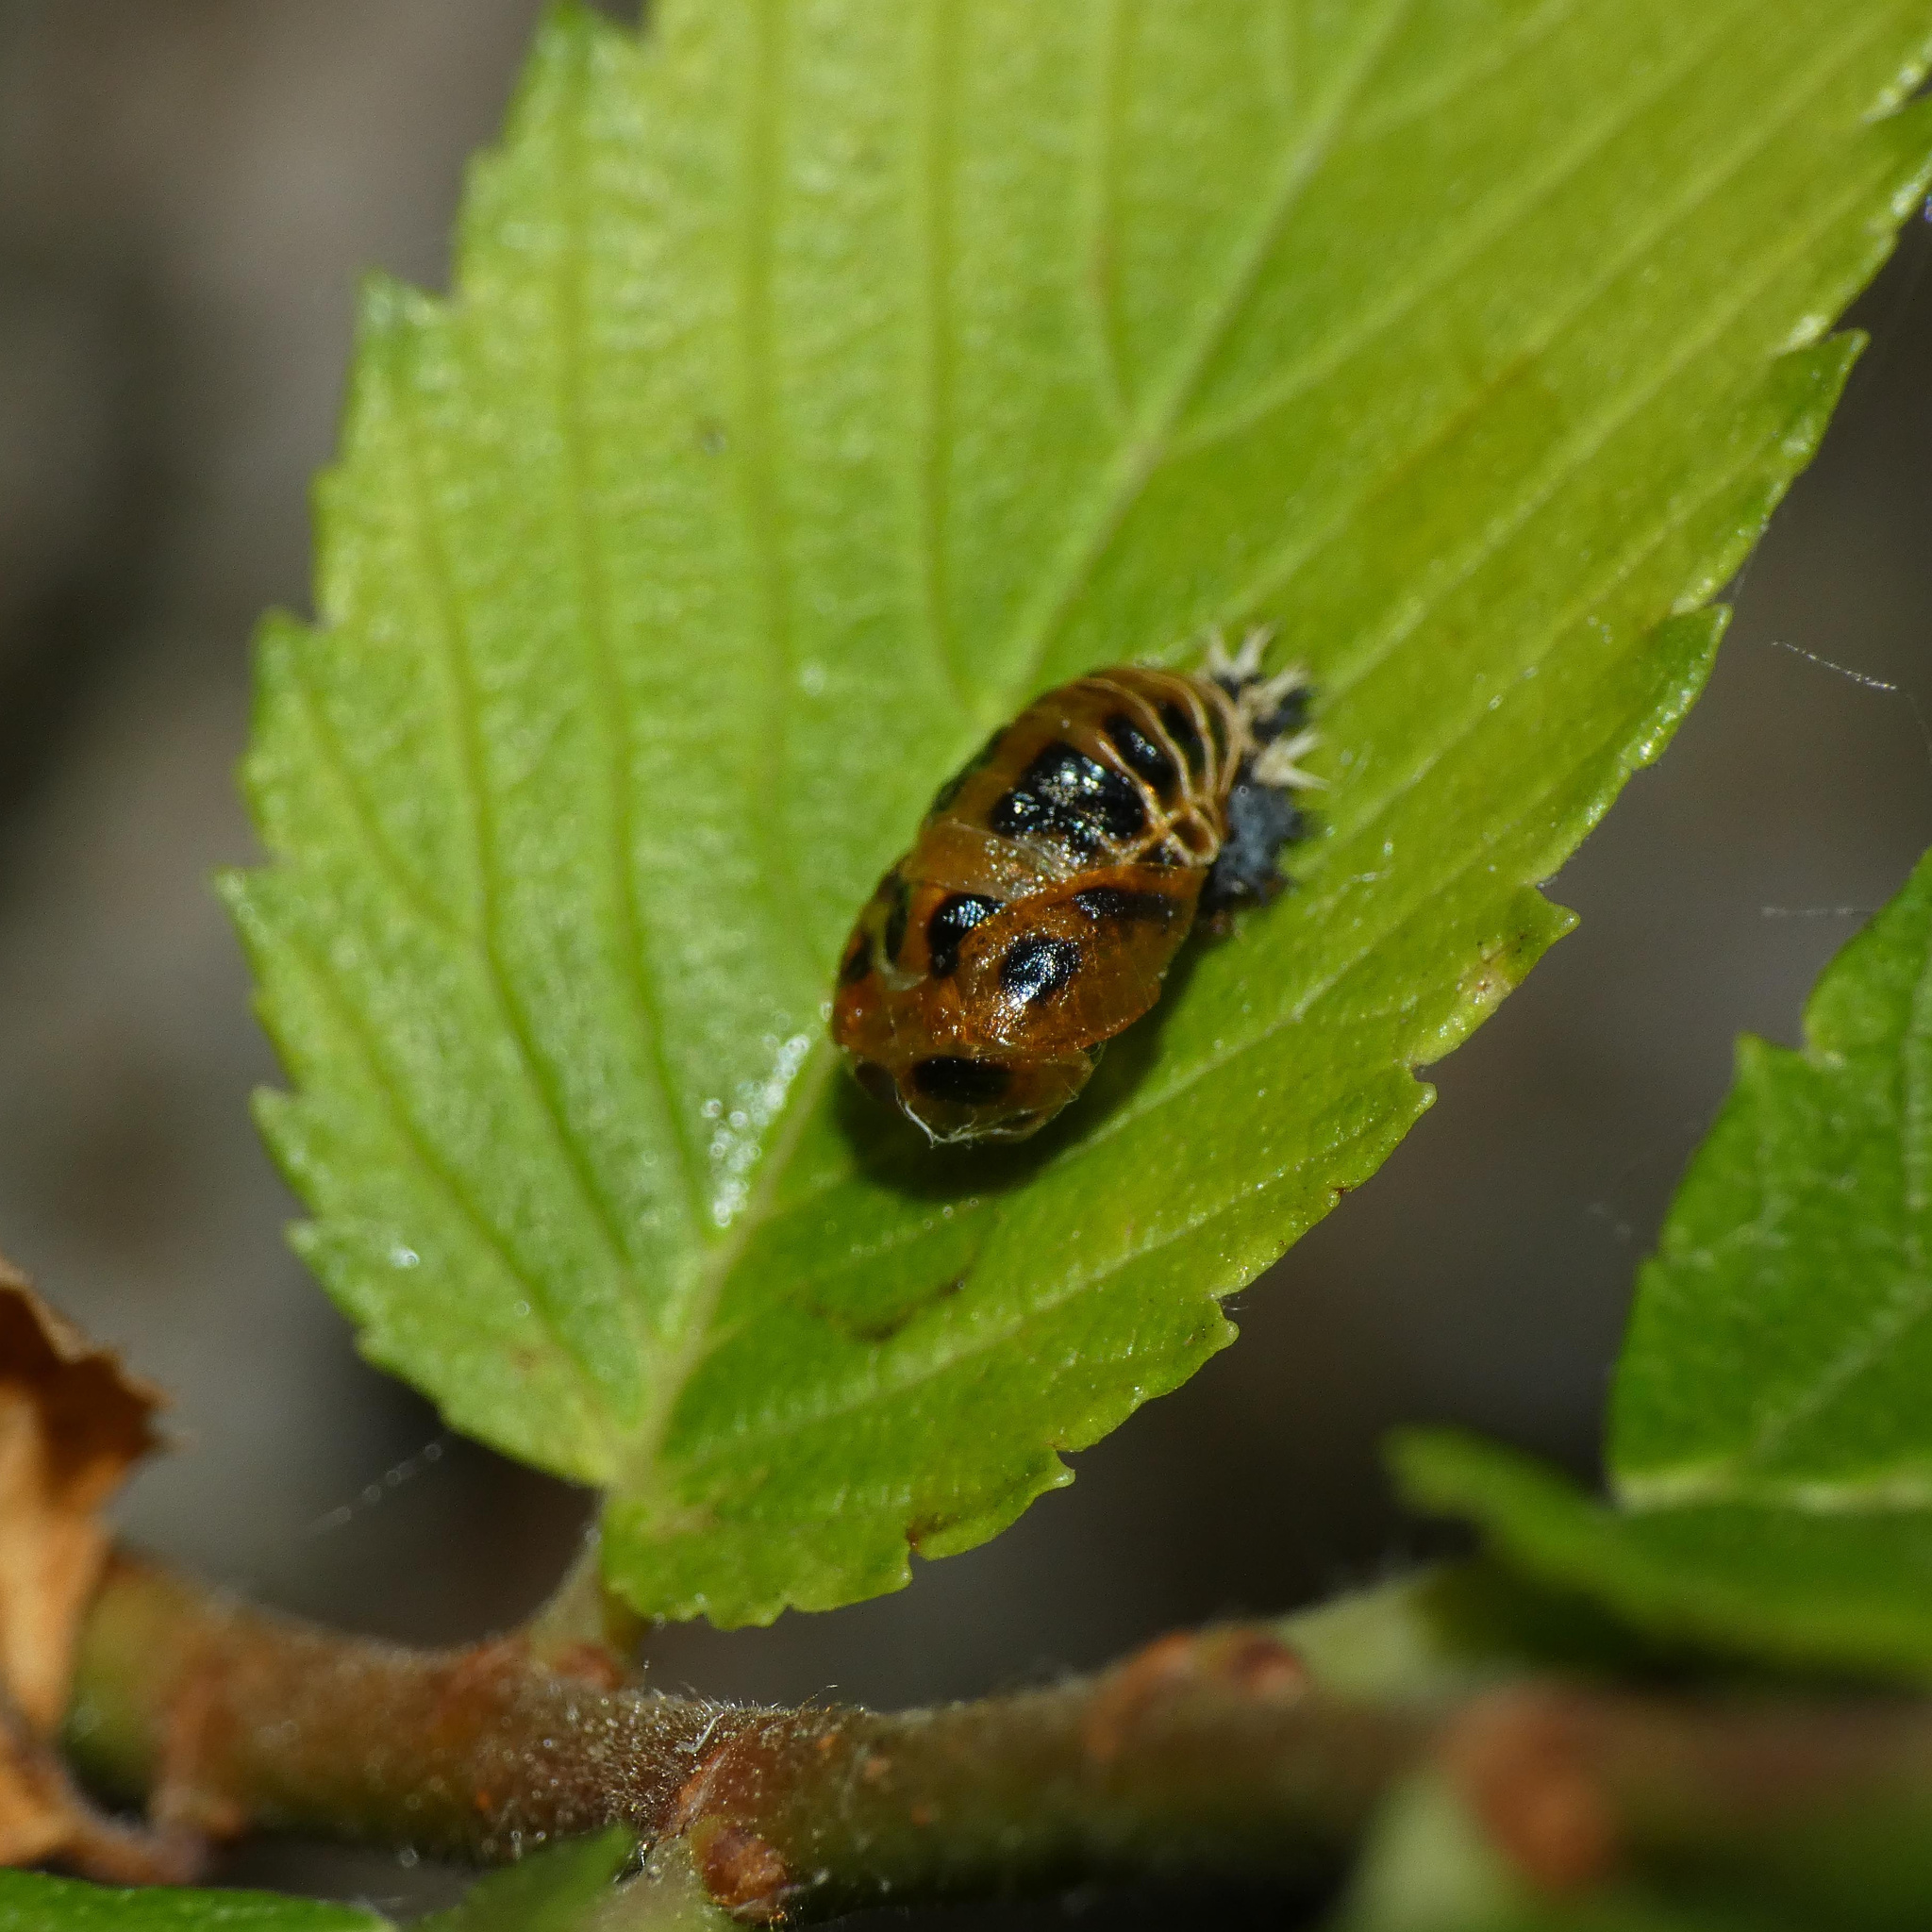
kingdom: Animalia
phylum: Arthropoda
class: Insecta
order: Coleoptera
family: Coccinellidae
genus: Harmonia
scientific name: Harmonia axyridis
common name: Harlequin ladybird
